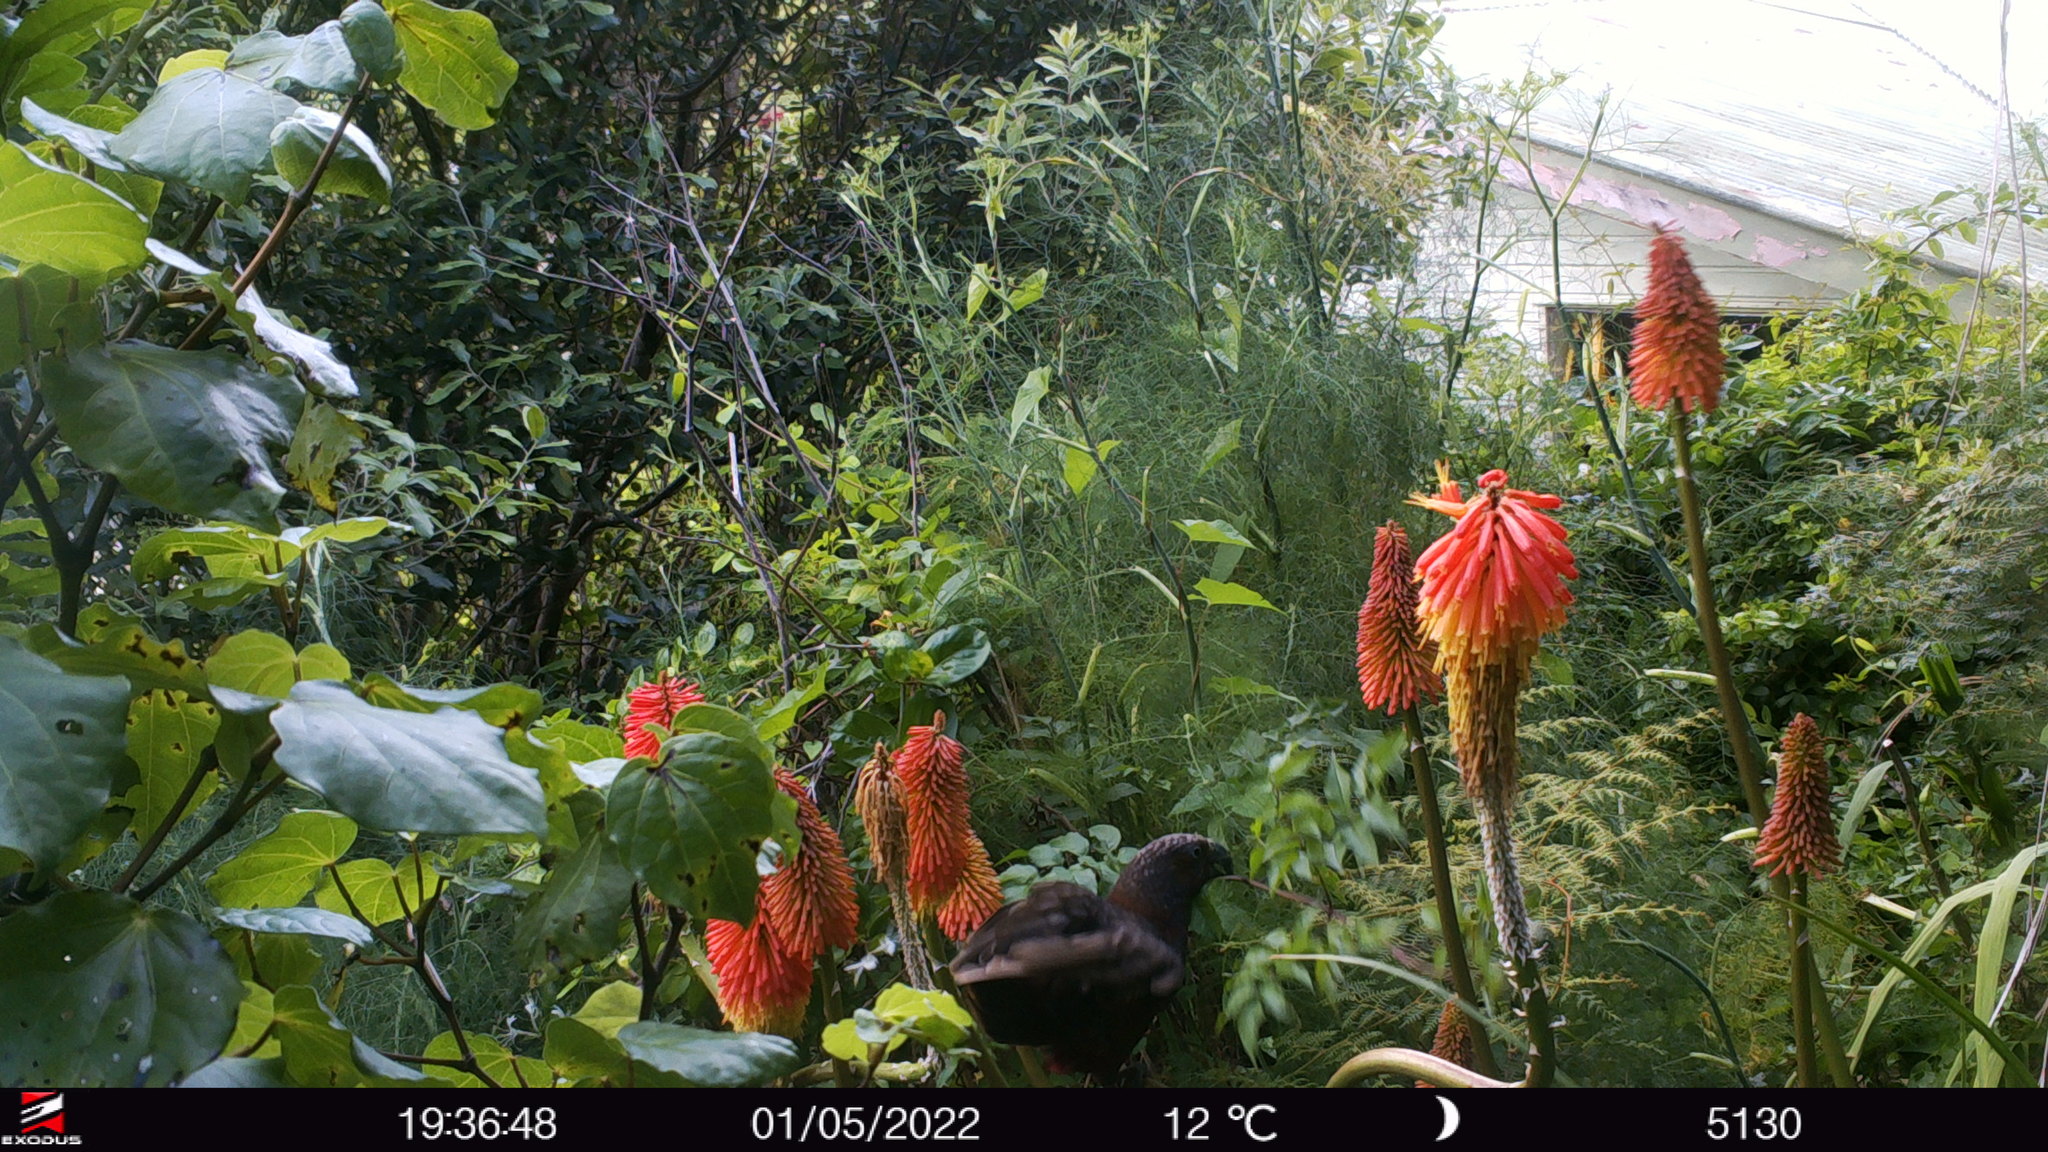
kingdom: Animalia
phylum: Chordata
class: Aves
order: Psittaciformes
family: Psittacidae
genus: Nestor
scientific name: Nestor meridionalis
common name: New zealand kaka
